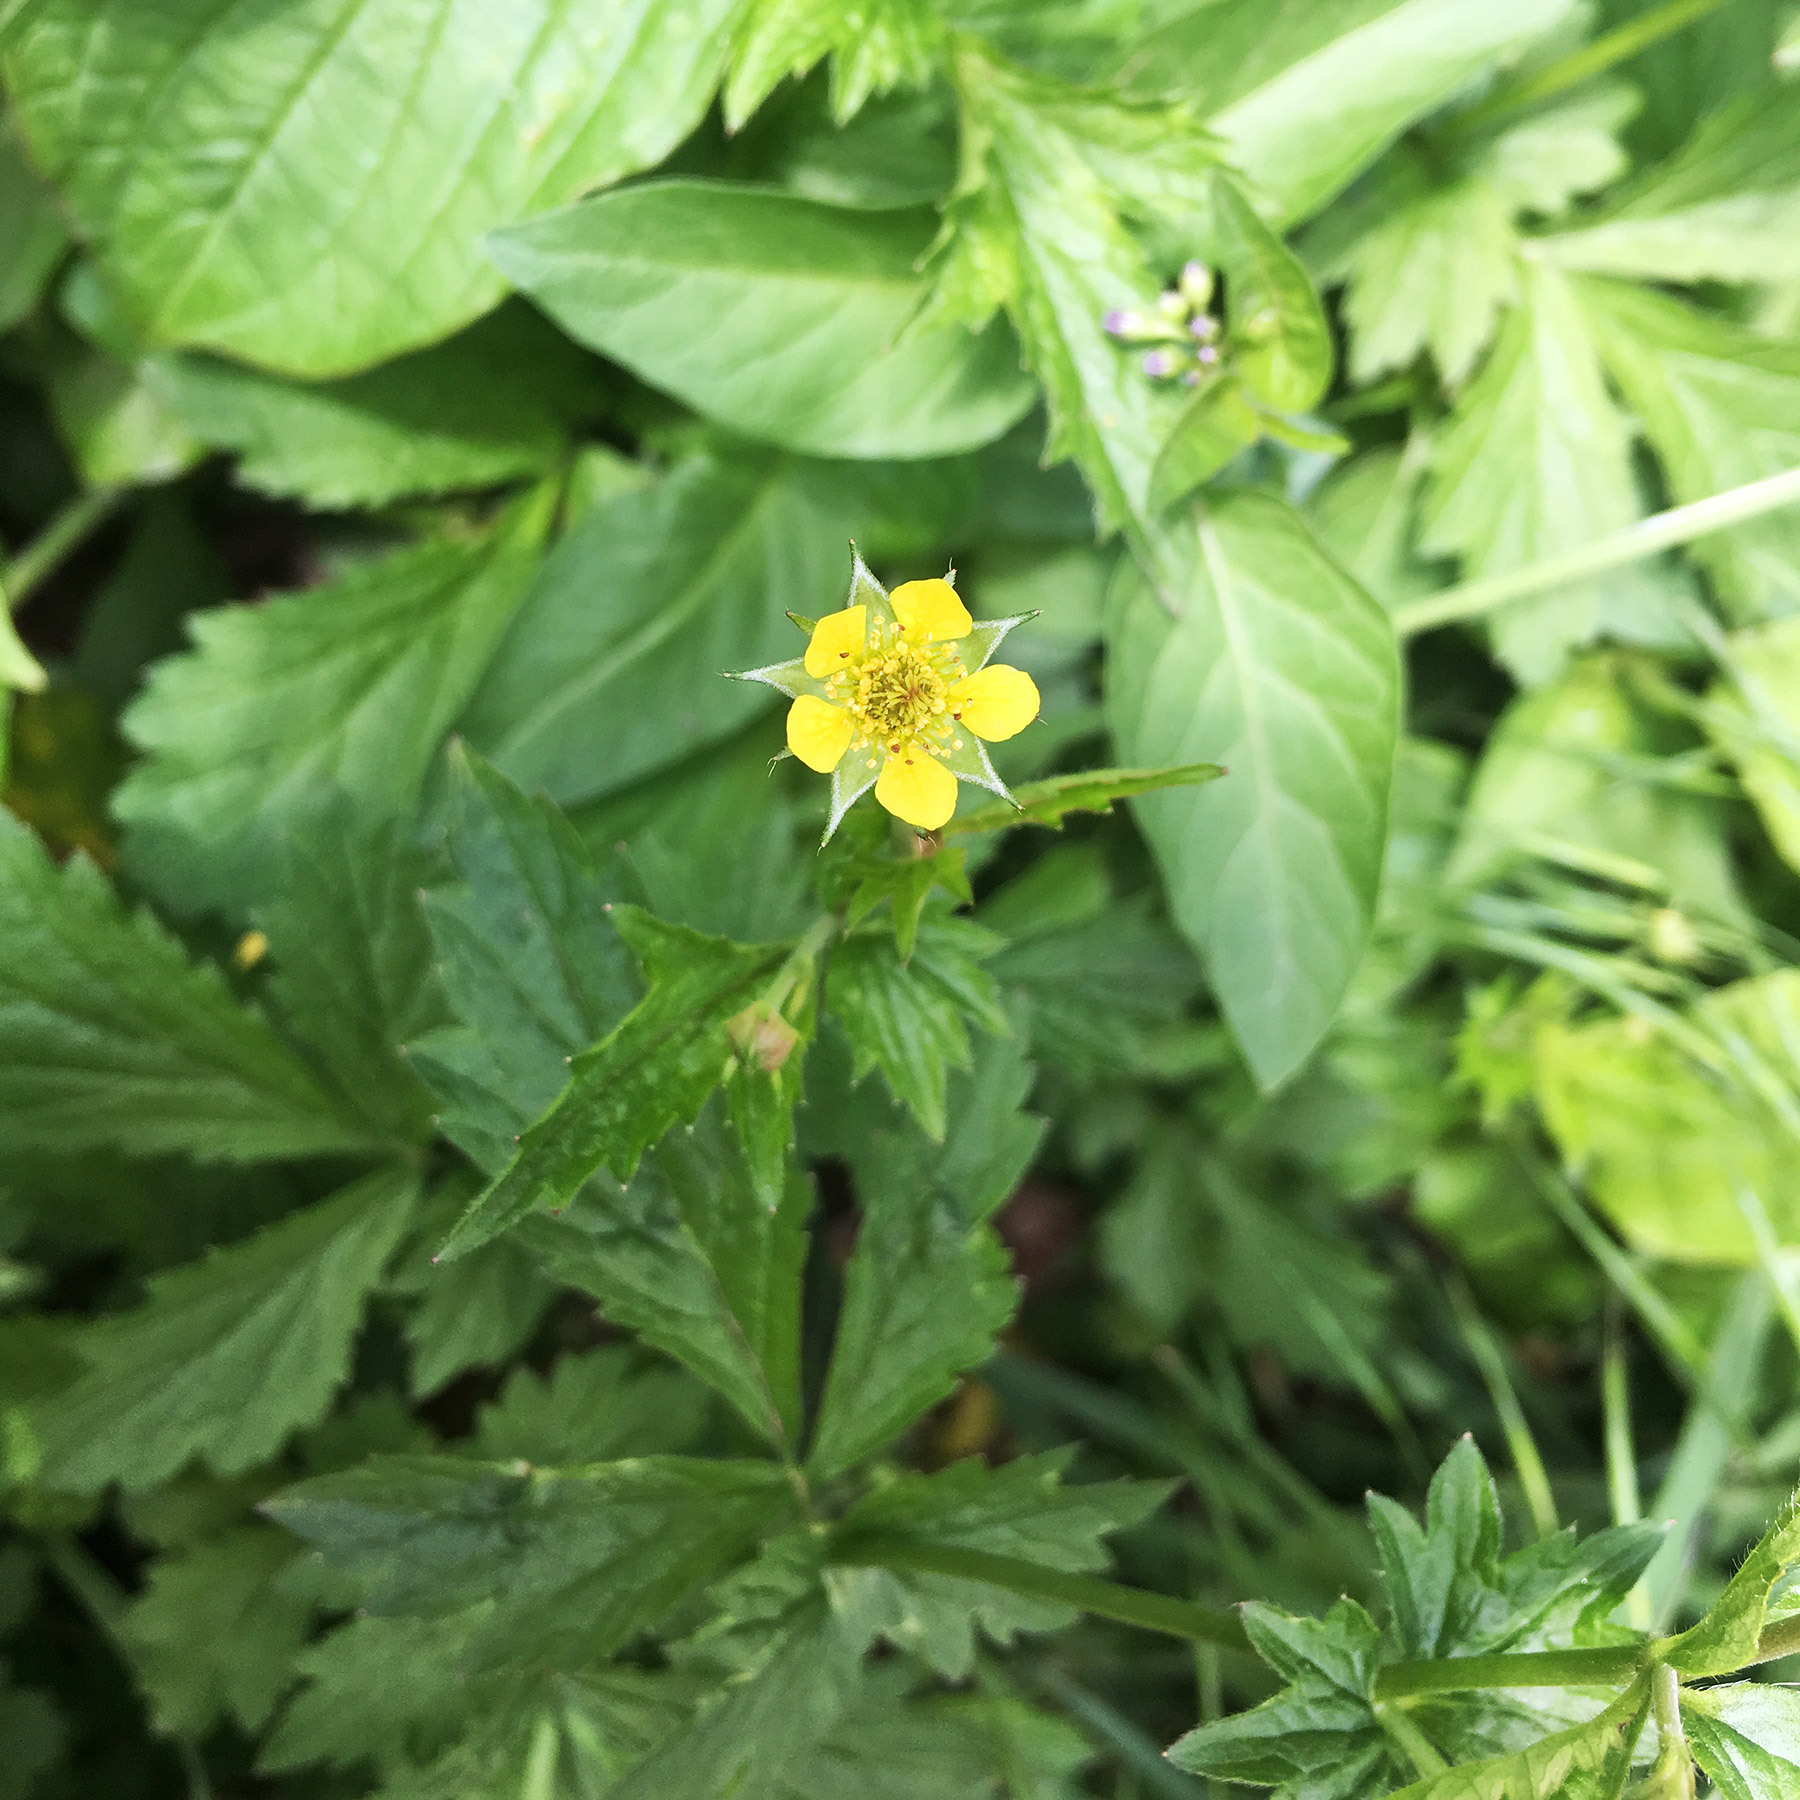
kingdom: Plantae
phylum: Tracheophyta
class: Magnoliopsida
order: Rosales
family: Rosaceae
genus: Geum
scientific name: Geum urbanum
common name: Wood avens
